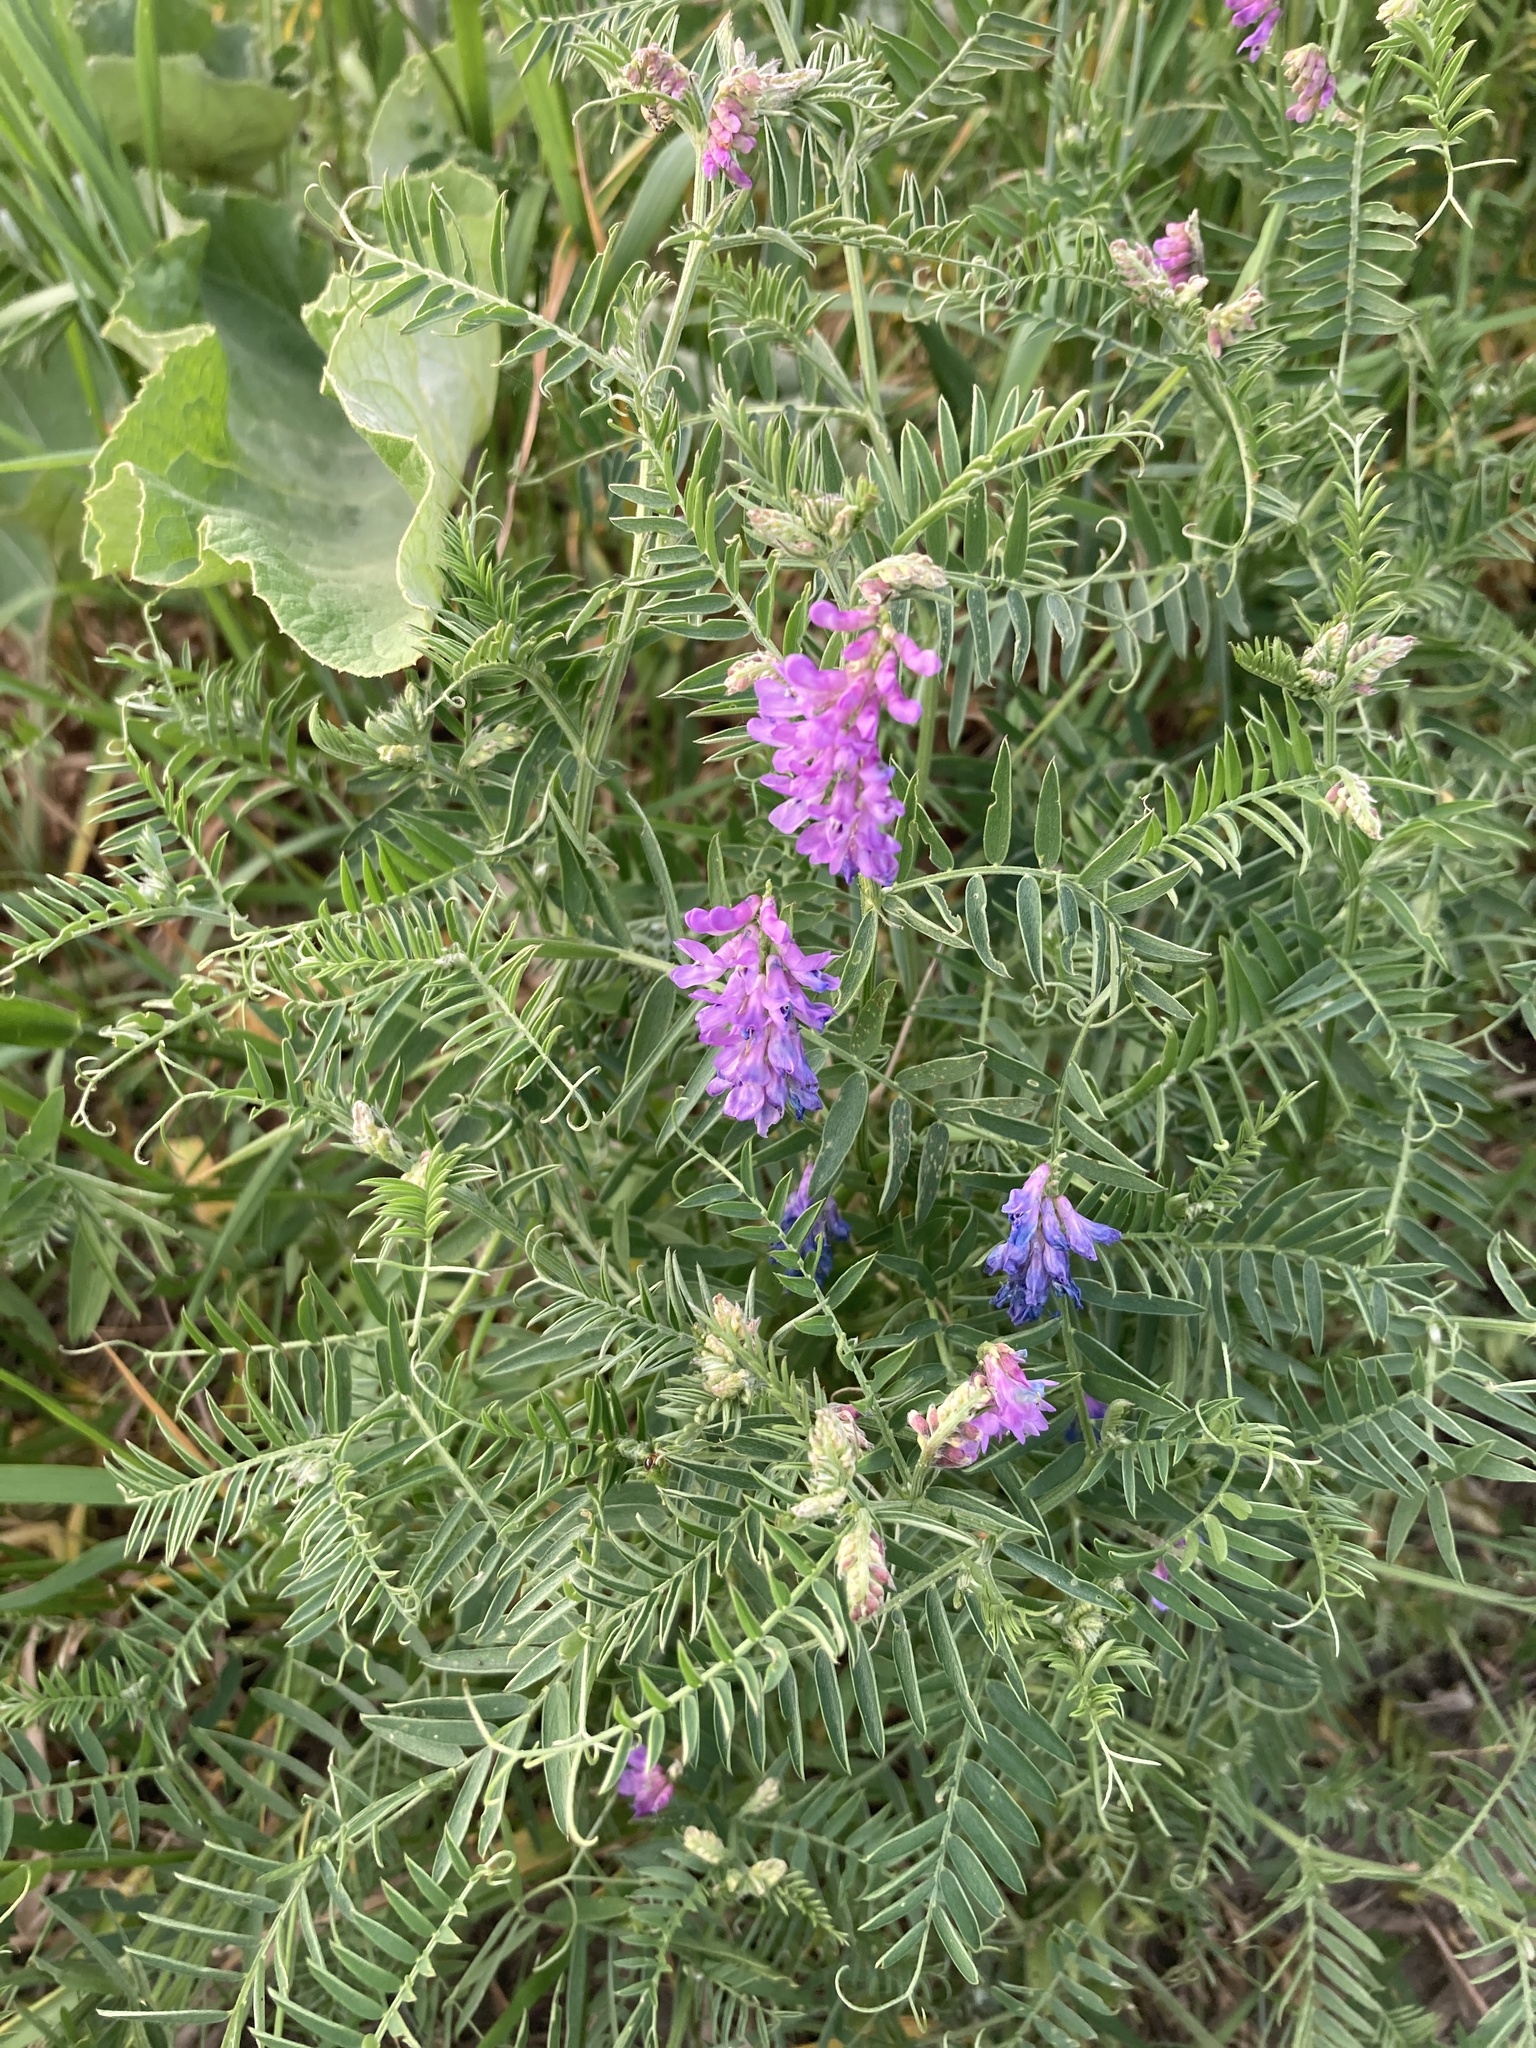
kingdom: Plantae
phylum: Tracheophyta
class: Magnoliopsida
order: Fabales
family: Fabaceae
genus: Vicia
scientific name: Vicia cracca
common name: Bird vetch
